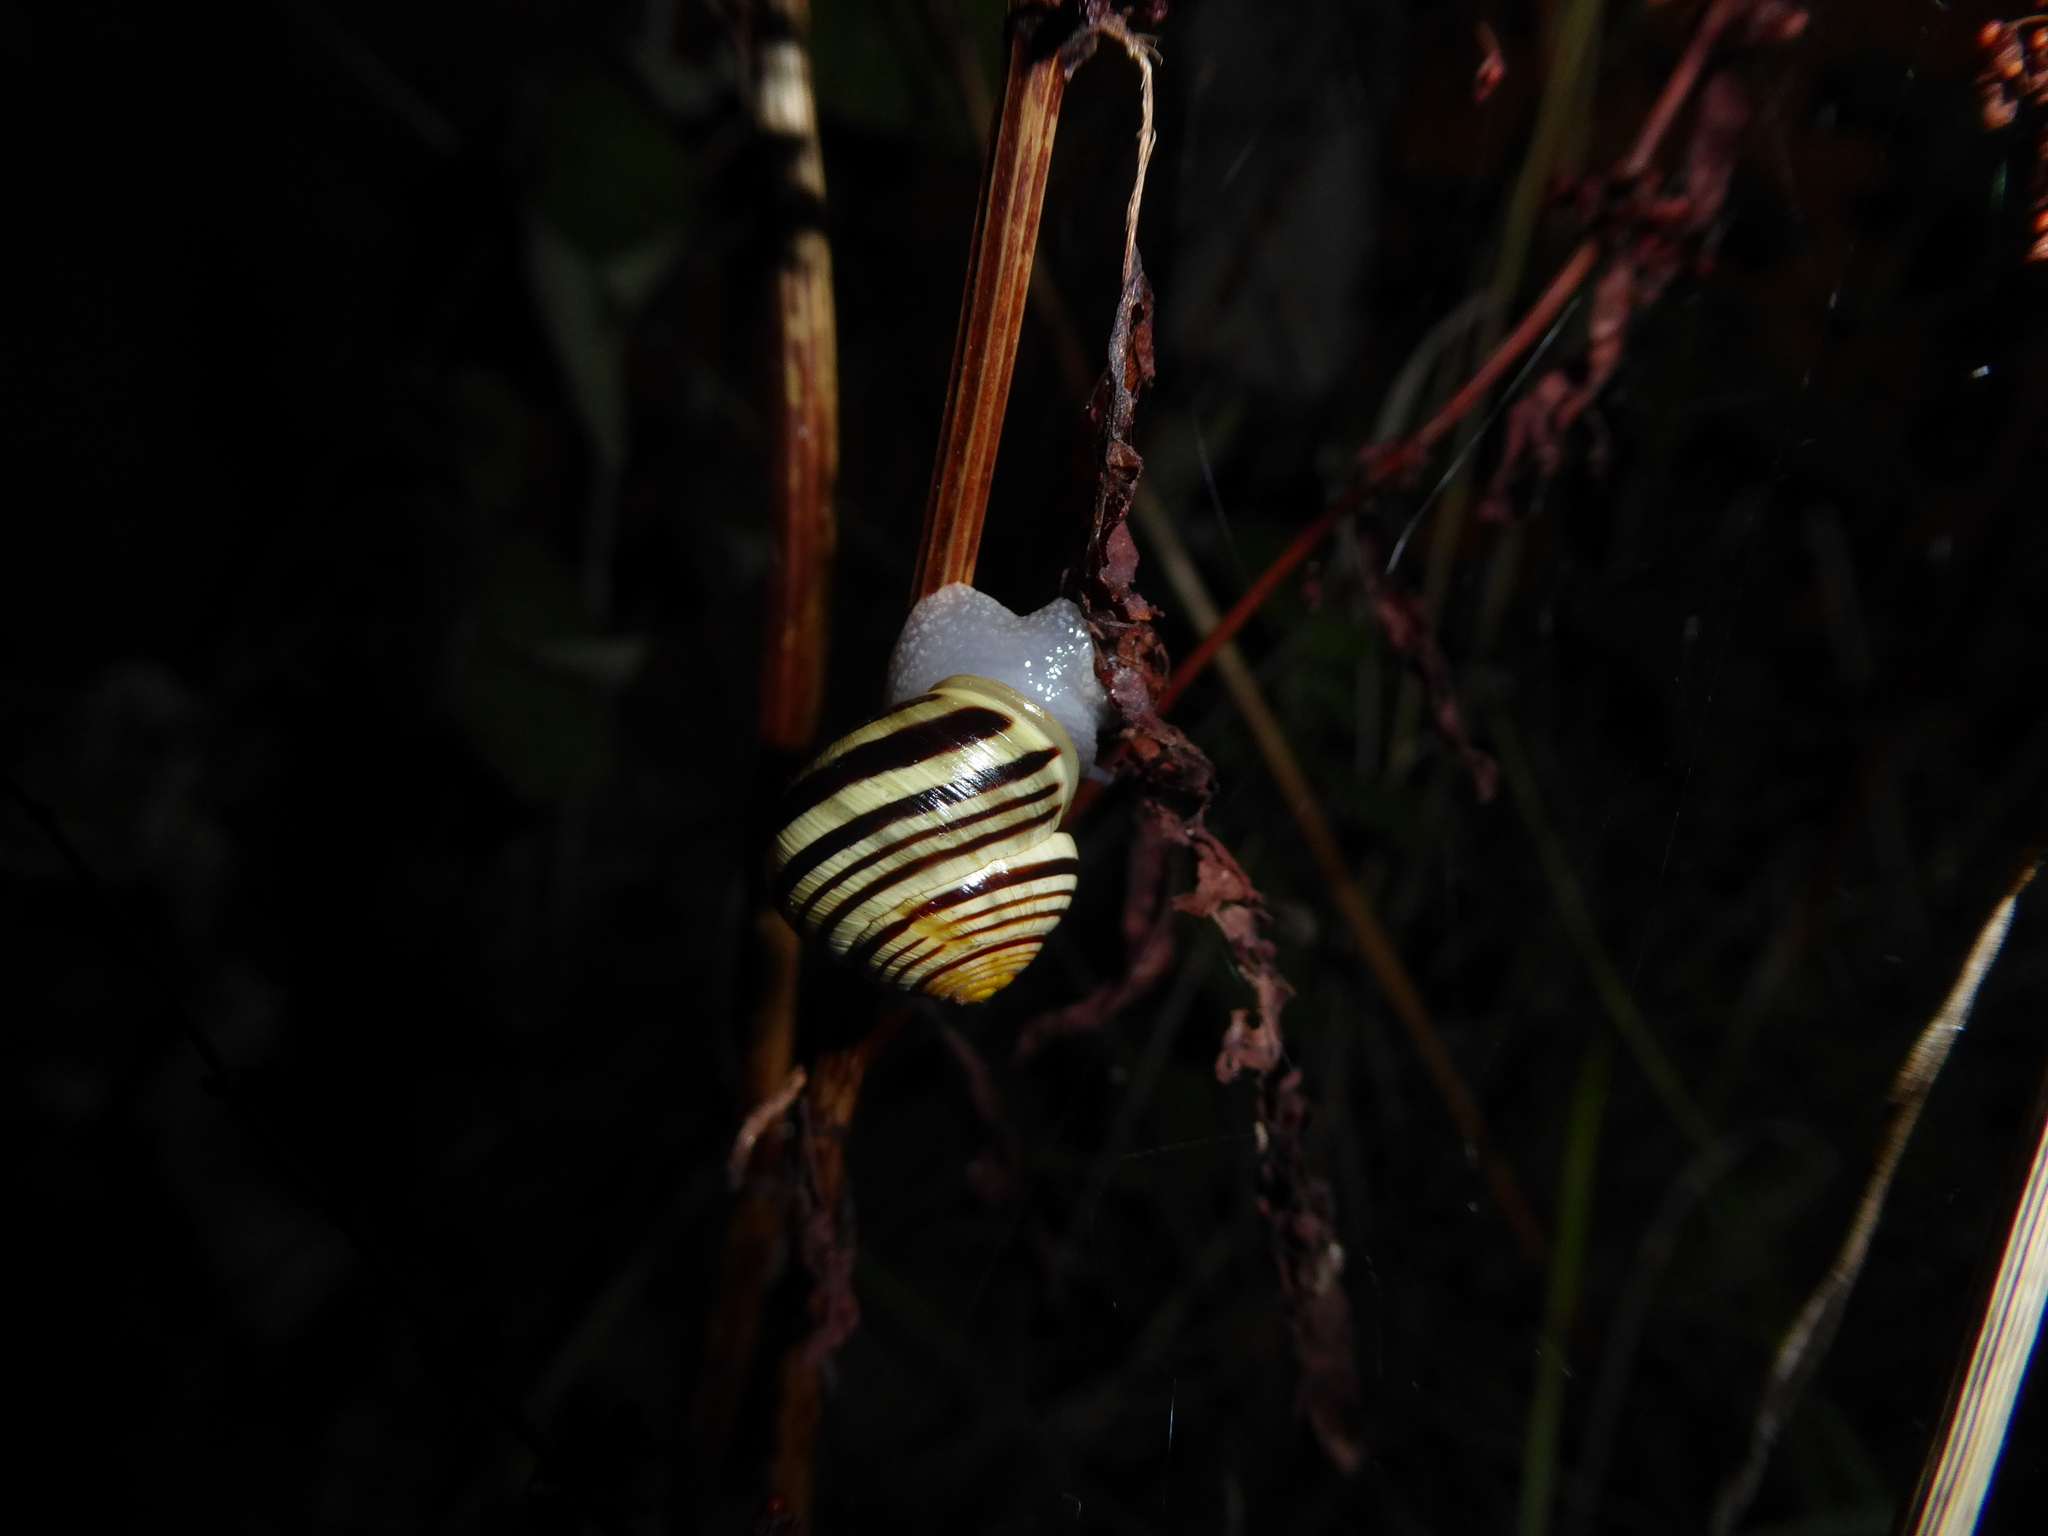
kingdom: Animalia
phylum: Mollusca
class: Gastropoda
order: Stylommatophora
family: Helicidae
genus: Cepaea
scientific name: Cepaea hortensis
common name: White-lip gardensnail
